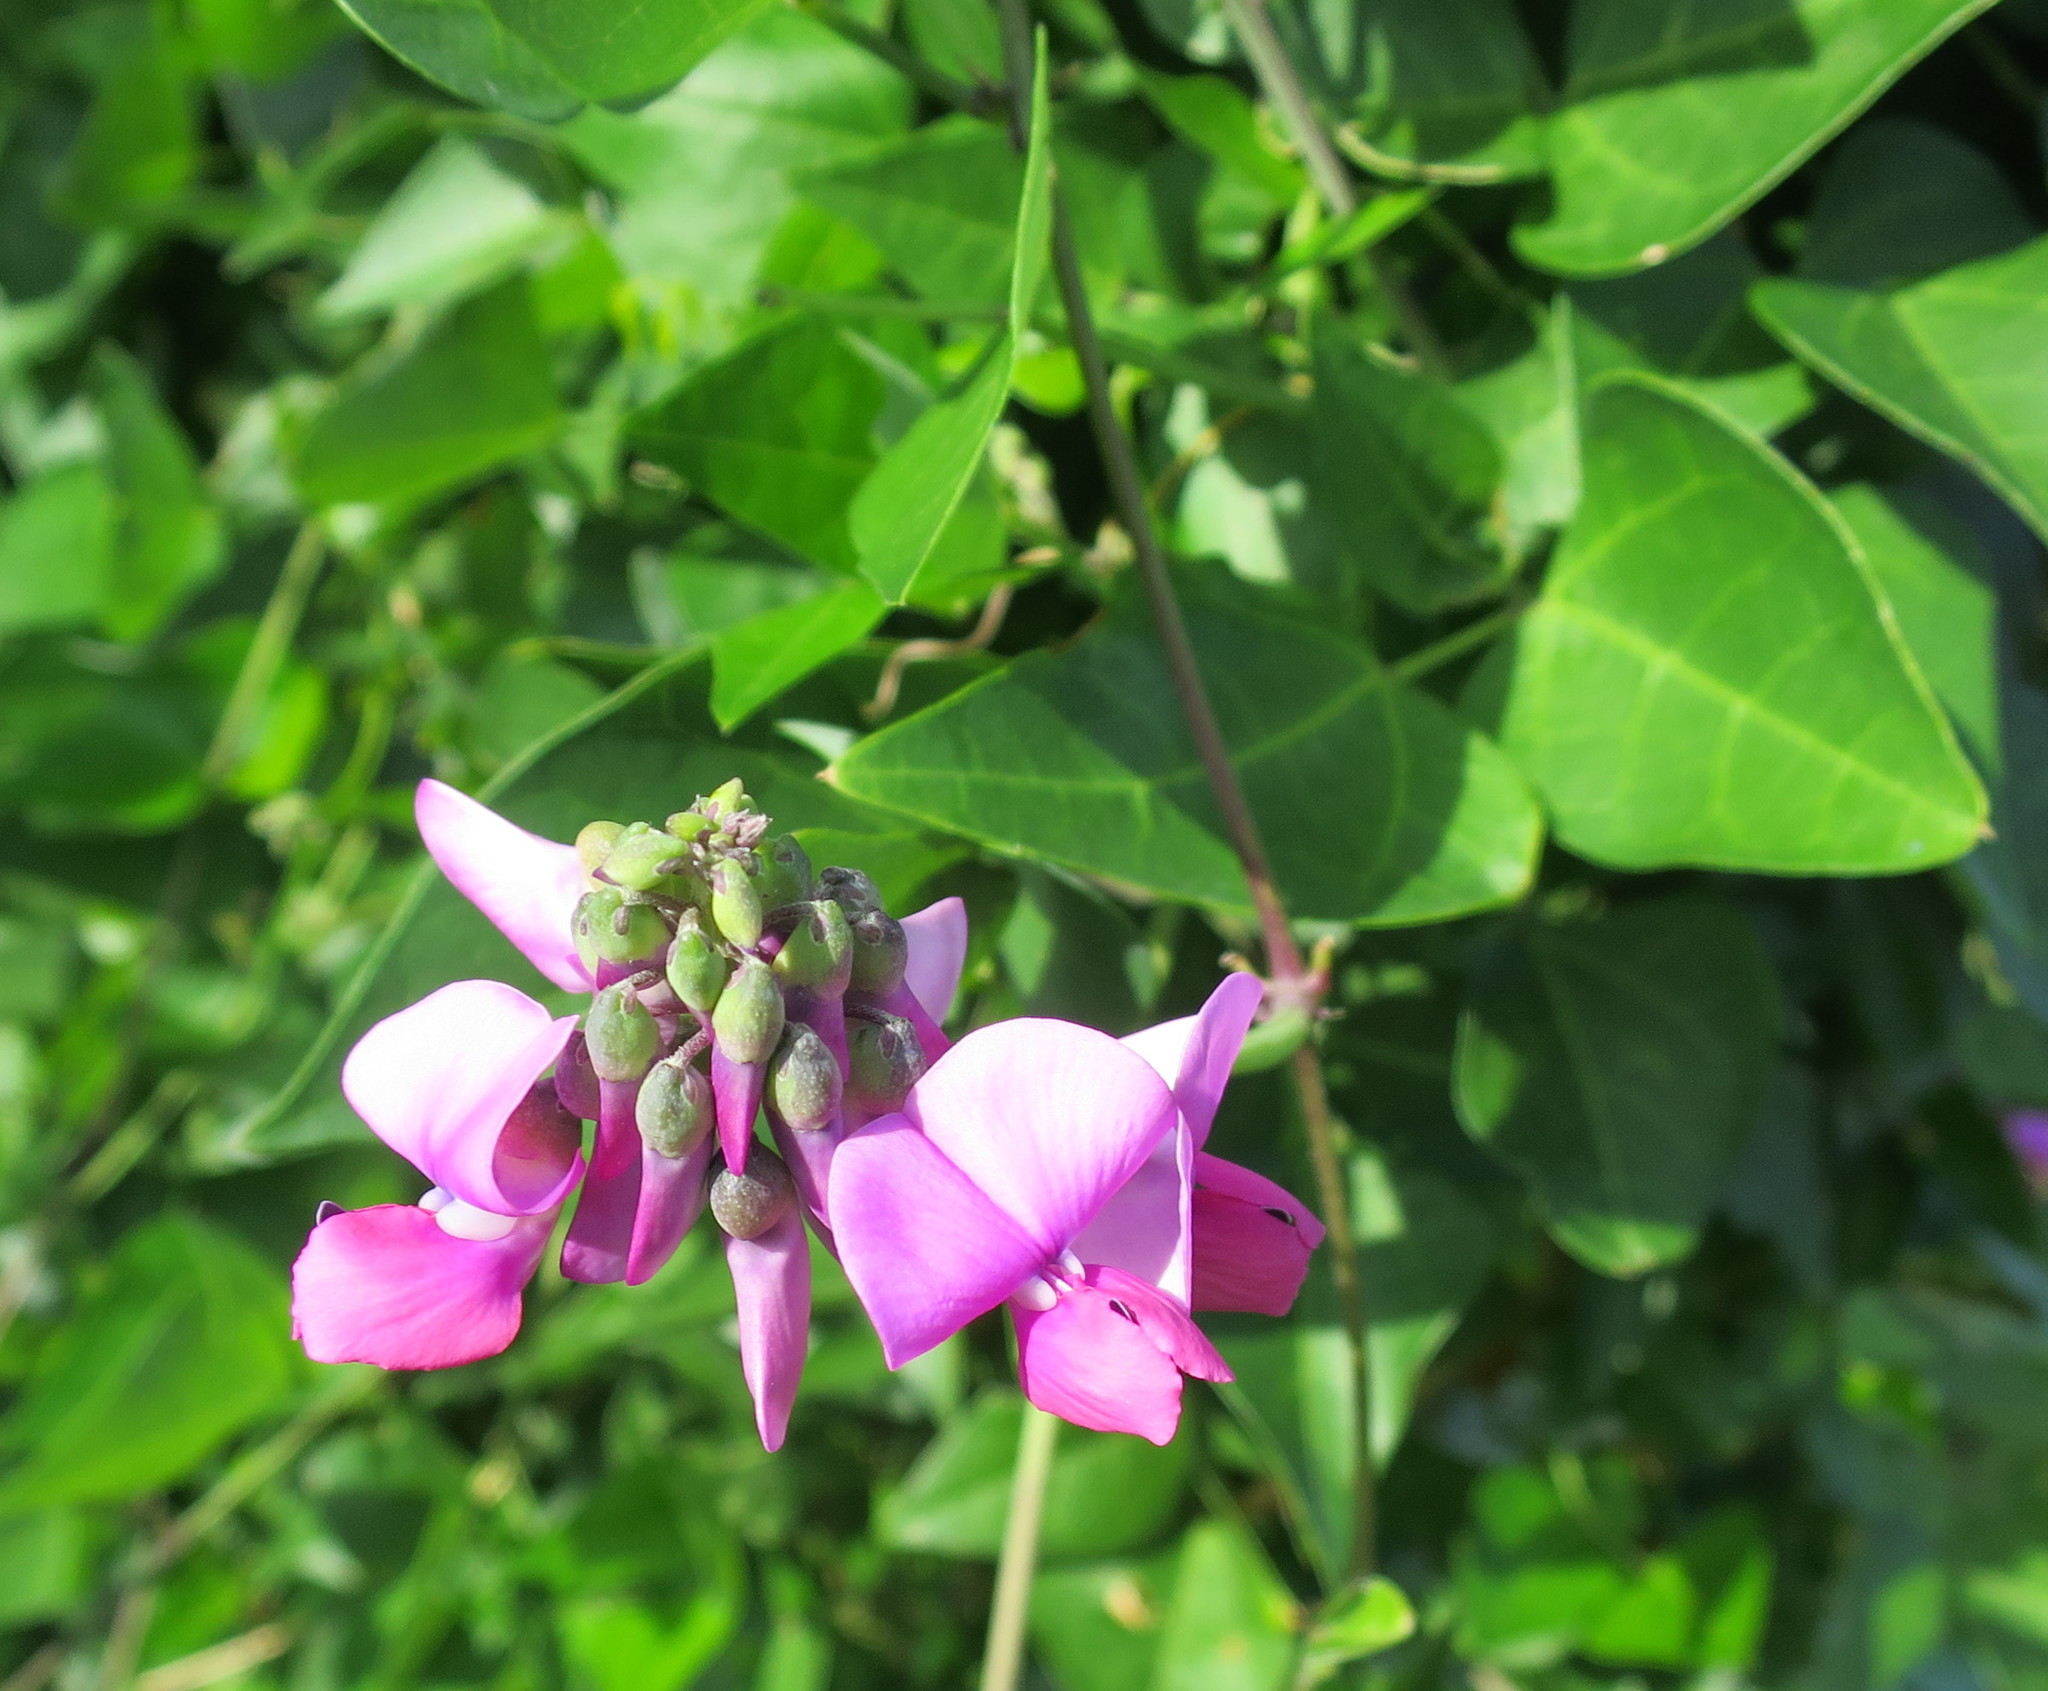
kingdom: Plantae
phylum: Tracheophyta
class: Magnoliopsida
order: Fabales
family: Fabaceae
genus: Dipogon
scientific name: Dipogon lignosus
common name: Okie bean
